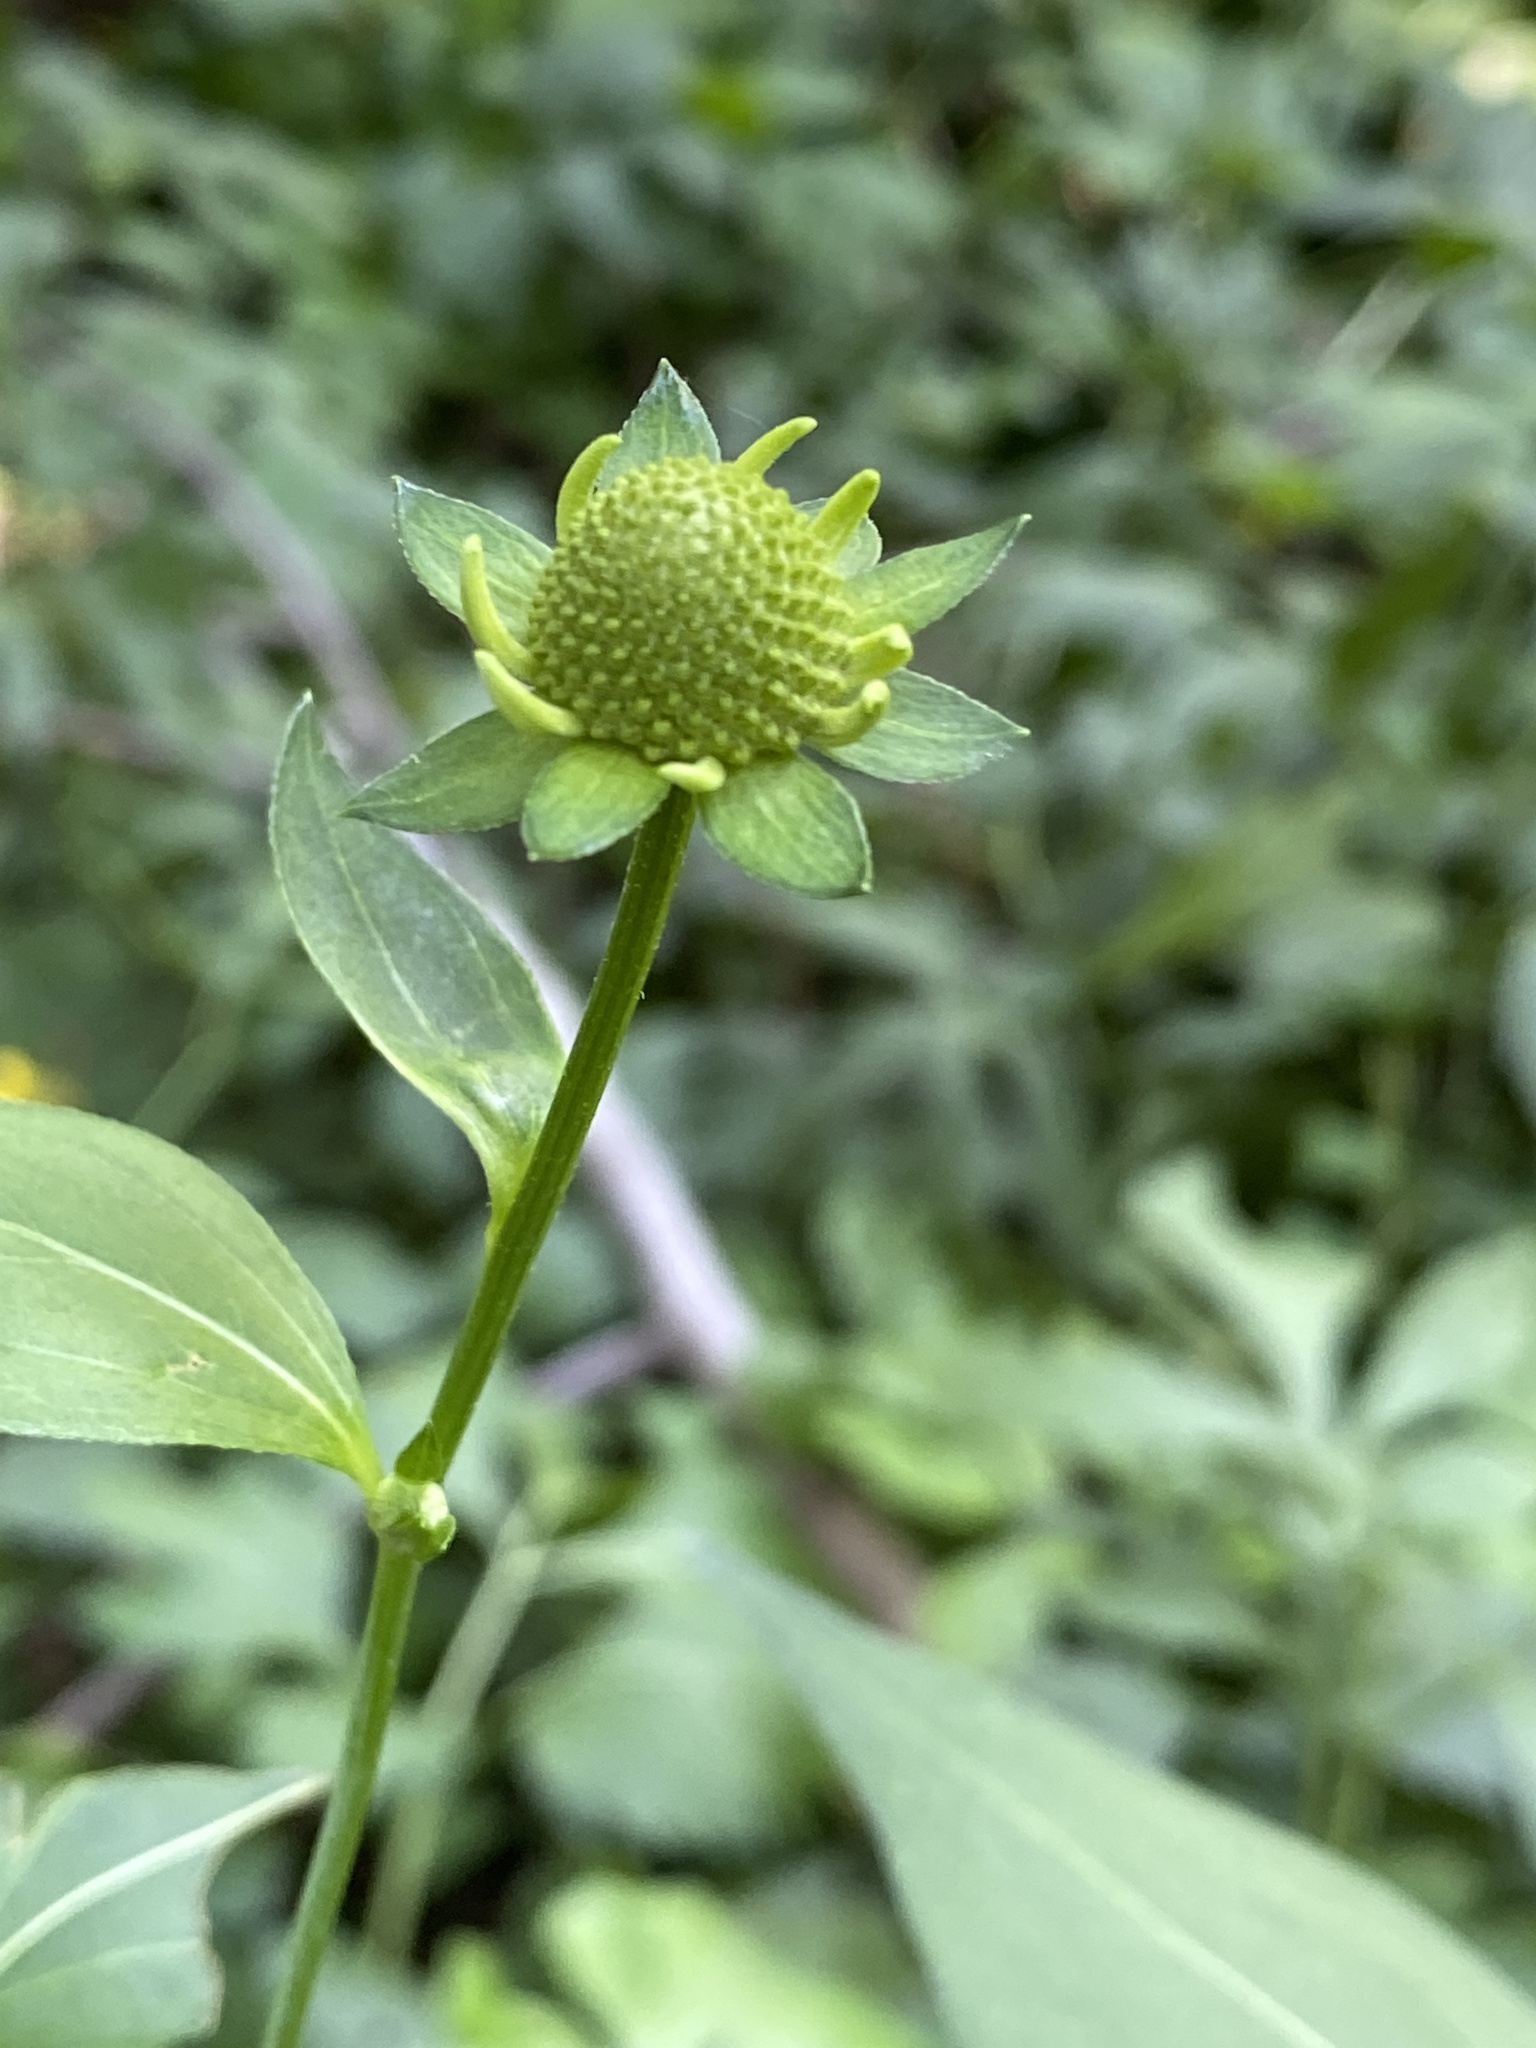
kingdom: Plantae
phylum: Tracheophyta
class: Magnoliopsida
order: Asterales
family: Asteraceae
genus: Rudbeckia
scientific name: Rudbeckia laciniata
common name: Coneflower
